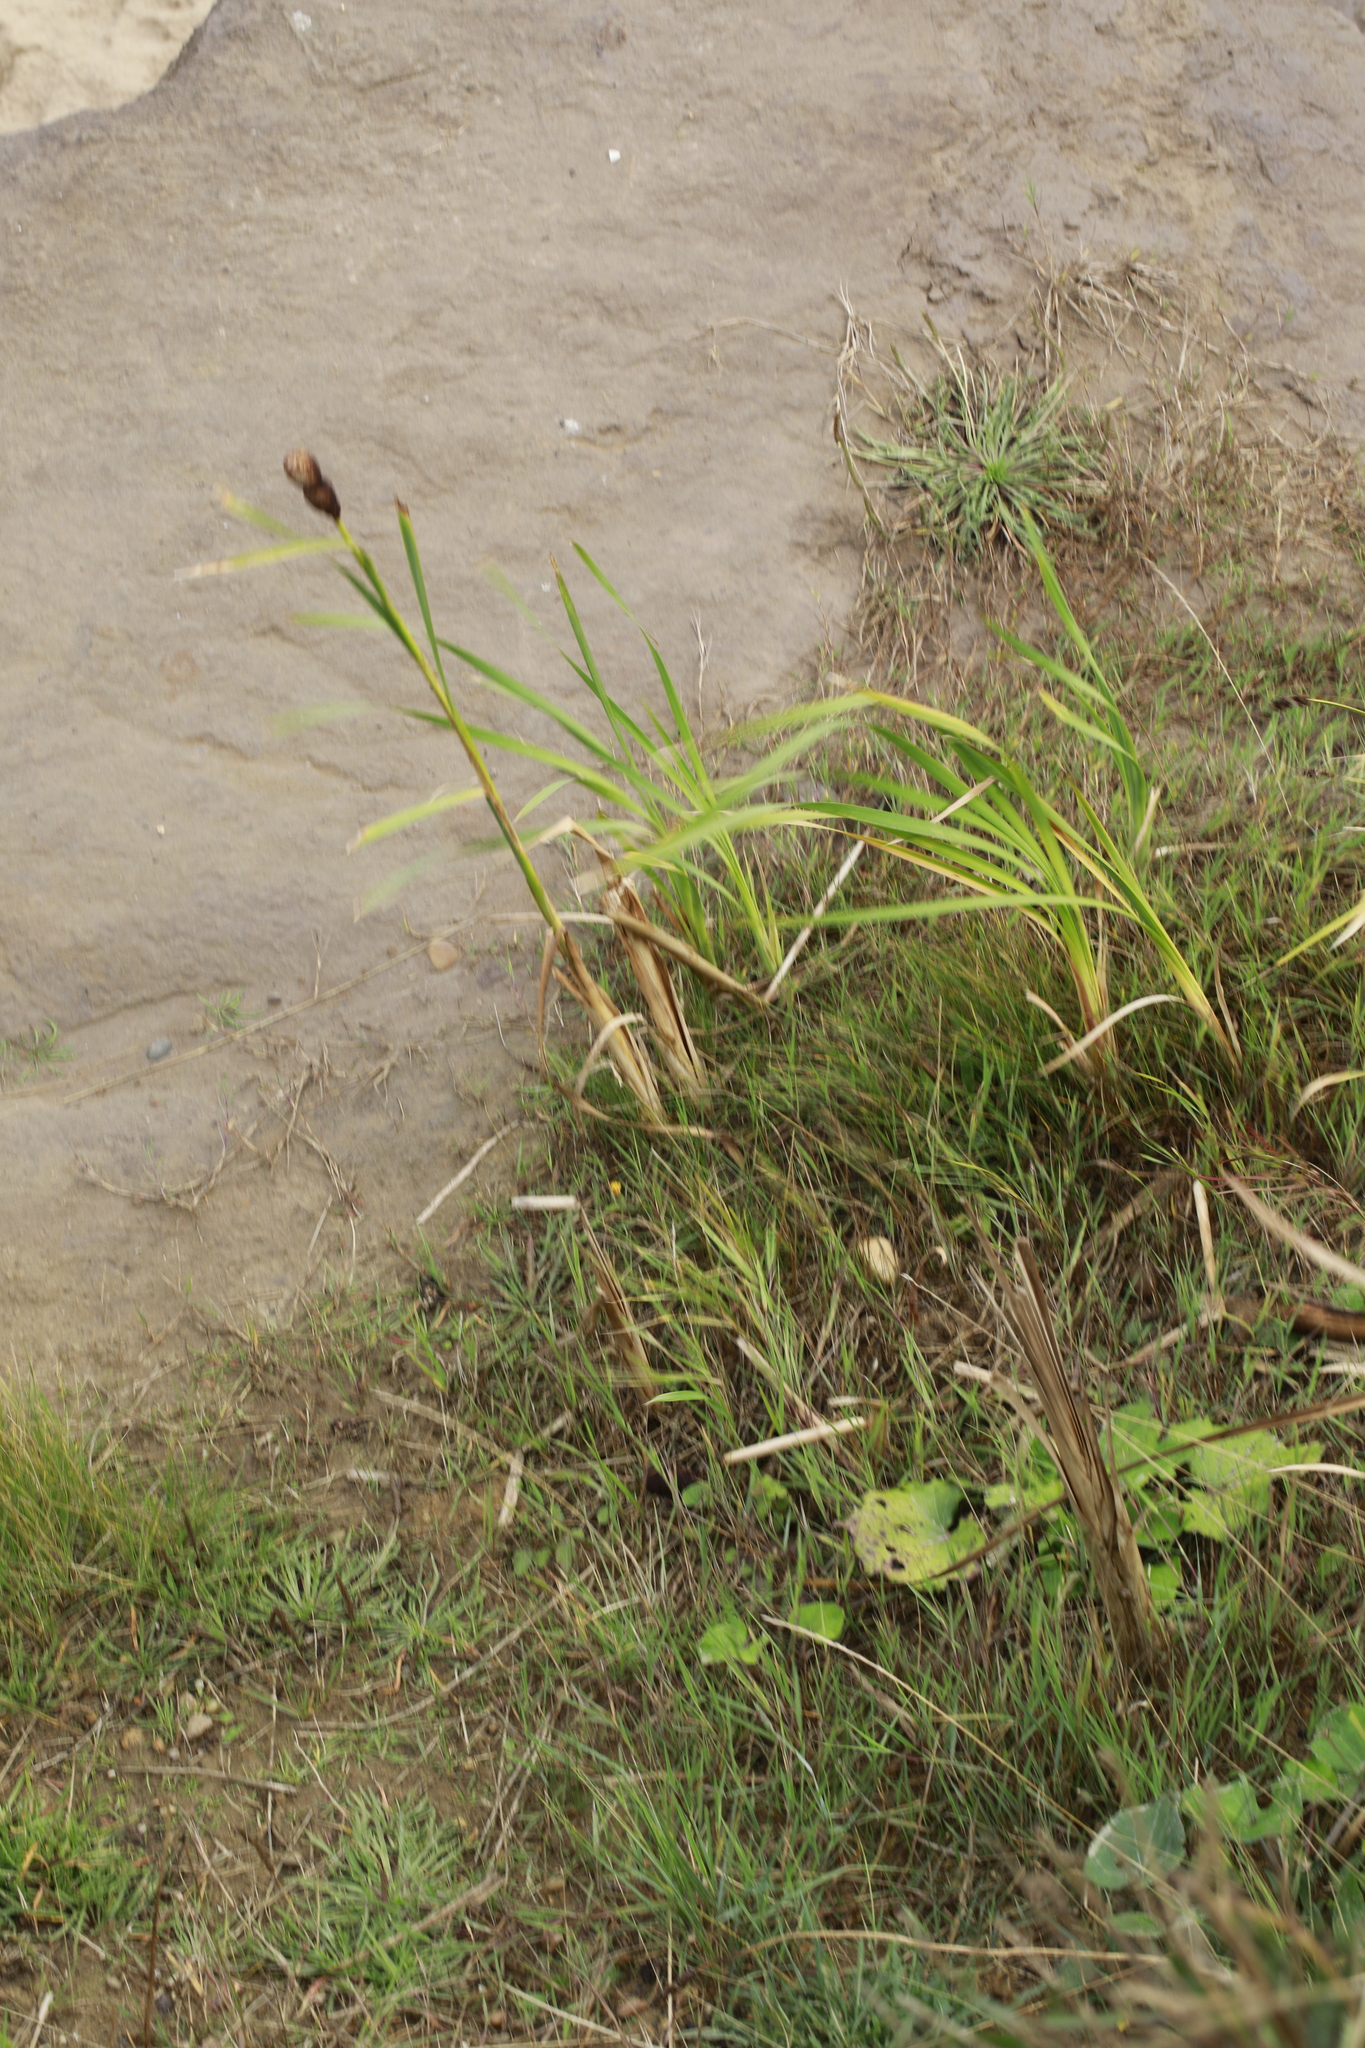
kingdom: Plantae
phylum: Tracheophyta
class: Liliopsida
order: Poales
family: Typhaceae
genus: Typha
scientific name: Typha latifolia
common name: Broadleaf cattail
